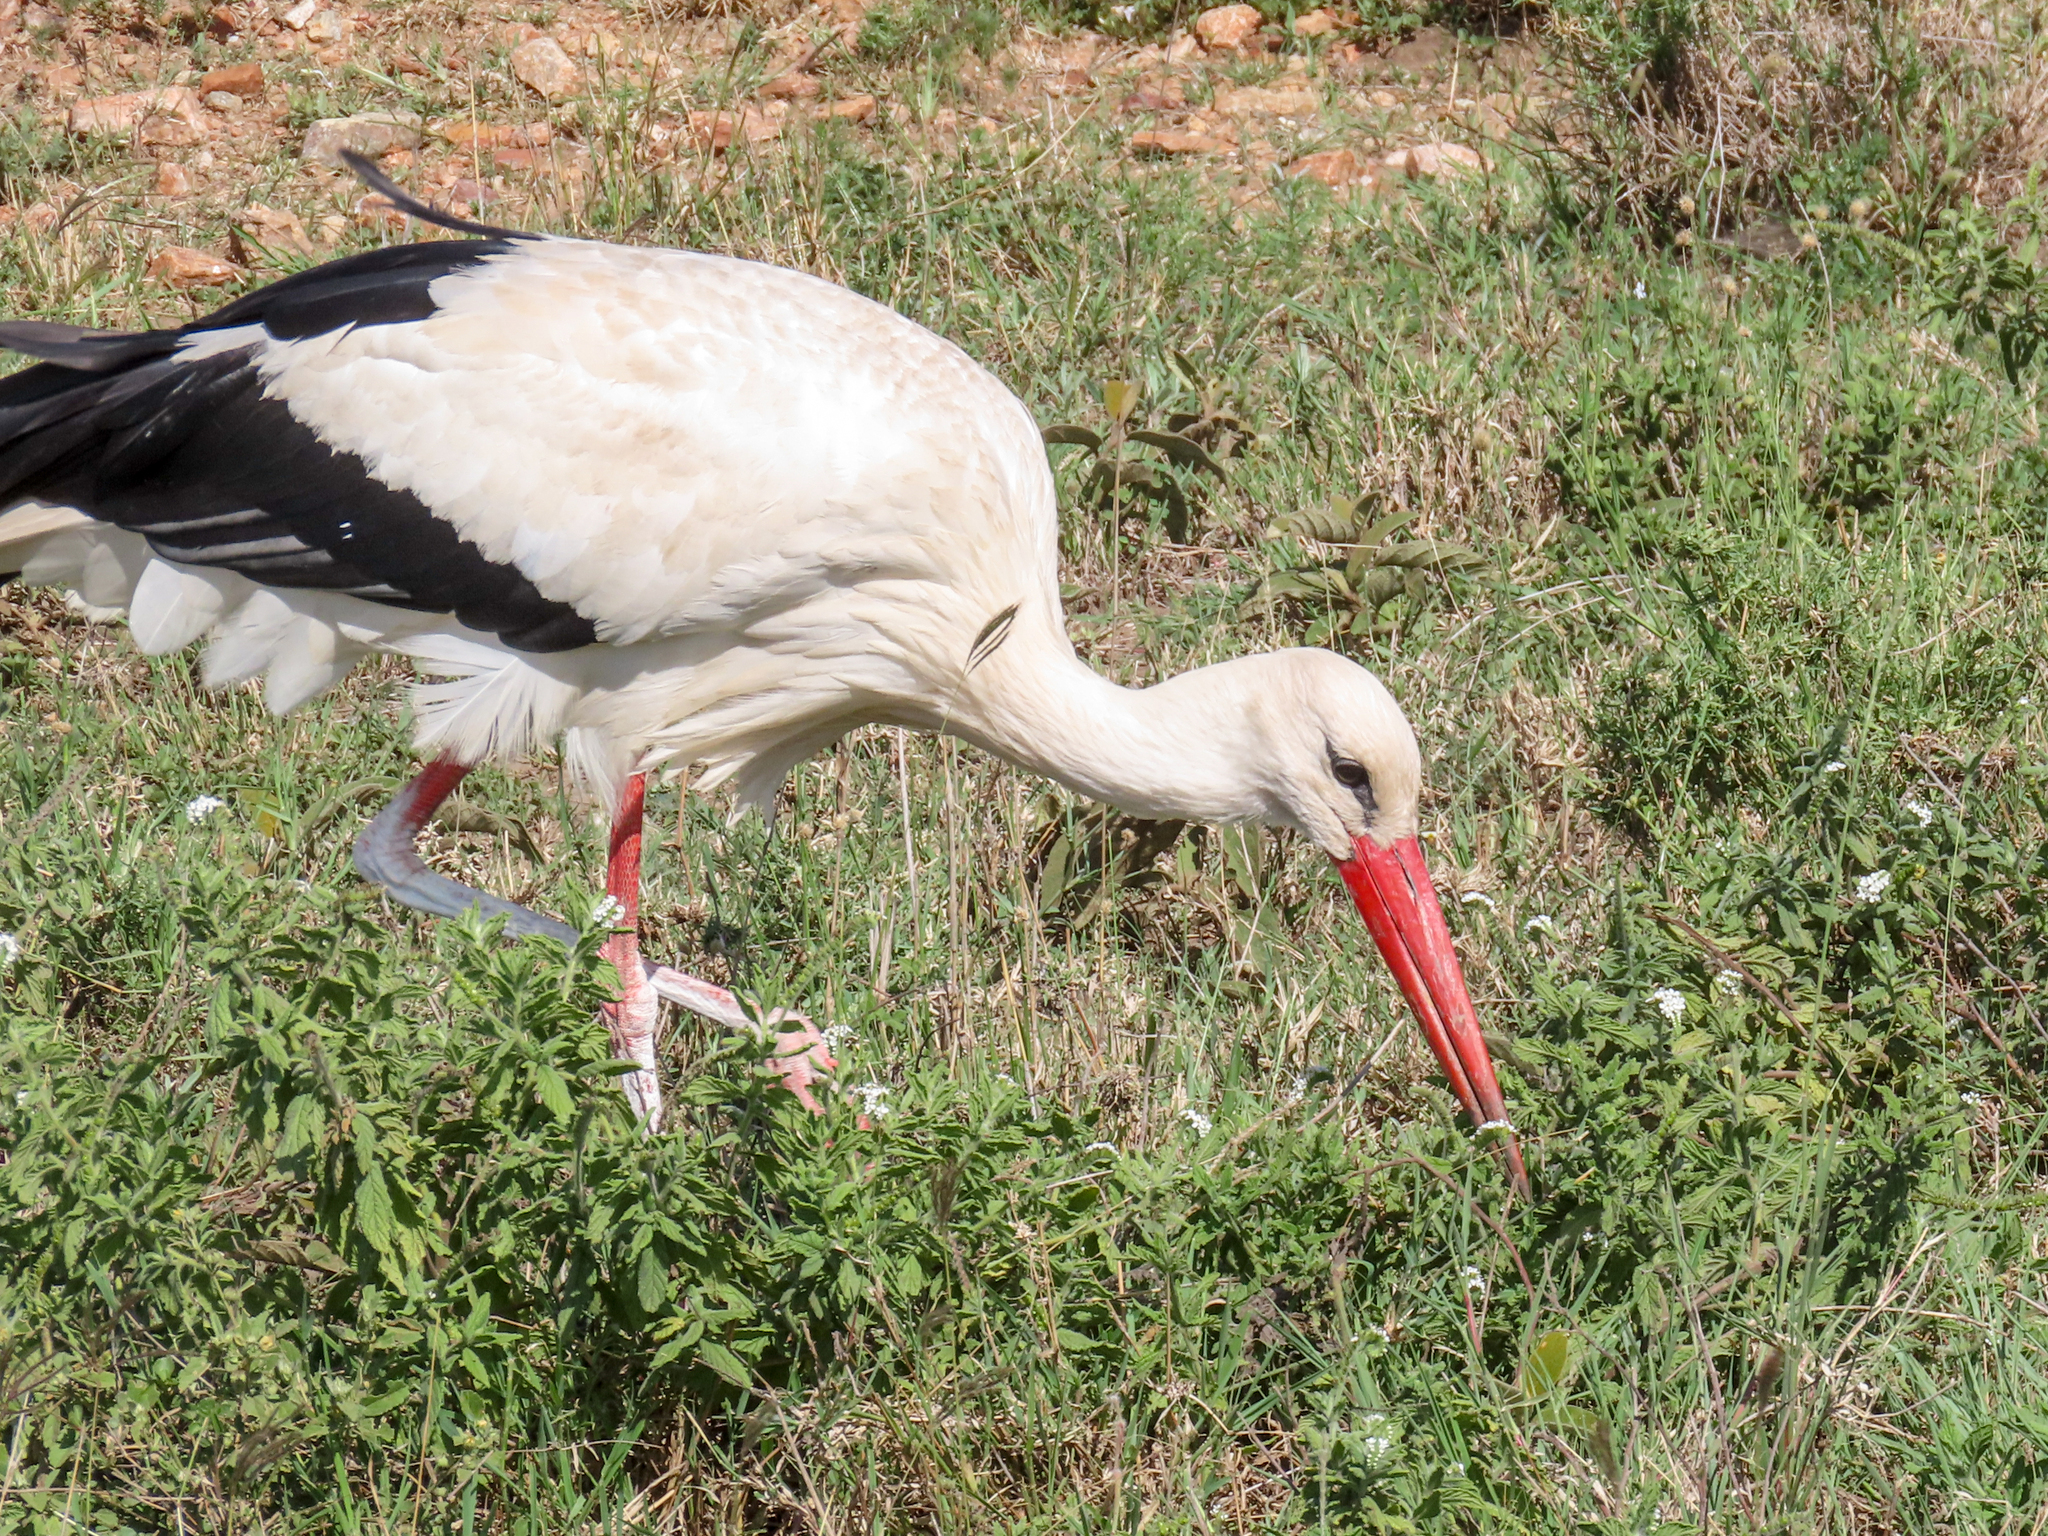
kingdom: Animalia
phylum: Chordata
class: Aves
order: Ciconiiformes
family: Ciconiidae
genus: Ciconia
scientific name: Ciconia ciconia
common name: White stork
